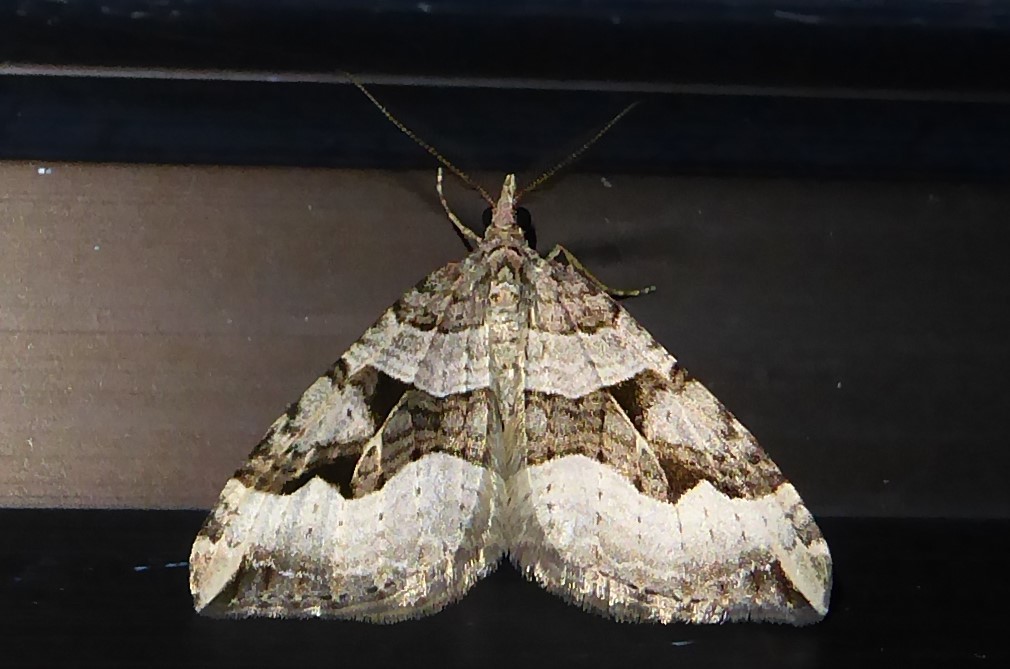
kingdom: Animalia
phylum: Arthropoda
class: Insecta
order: Lepidoptera
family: Geometridae
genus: Xanthorhoe
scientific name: Xanthorhoe semifissata
